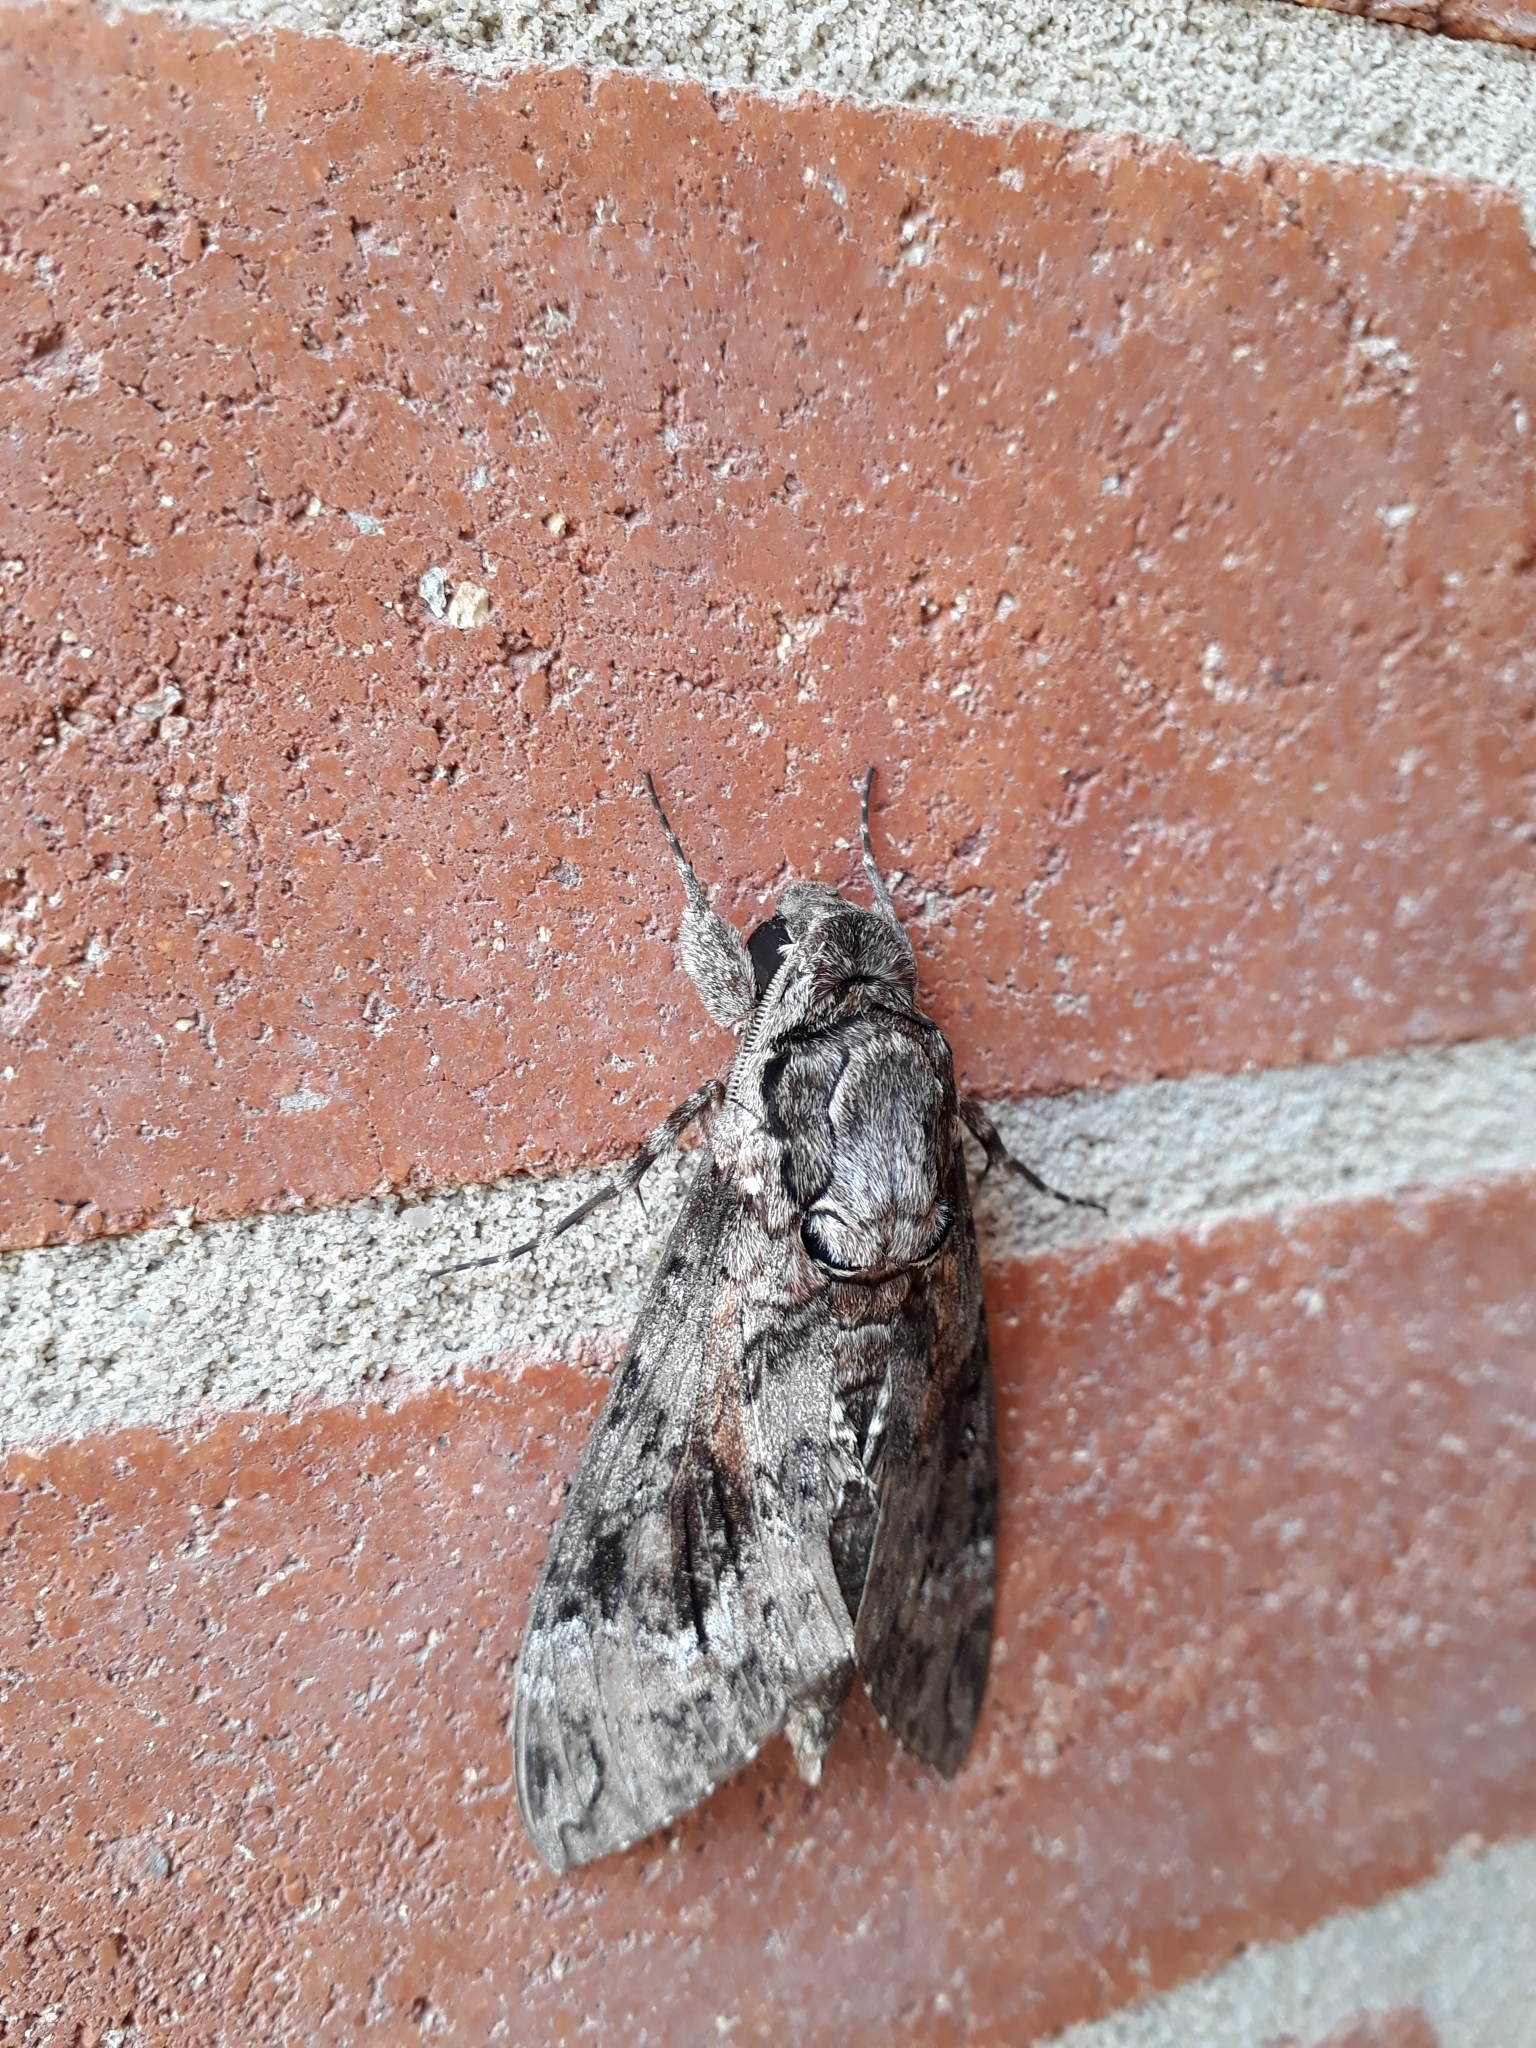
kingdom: Animalia
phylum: Arthropoda
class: Insecta
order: Lepidoptera
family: Sphingidae
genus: Agrius
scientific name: Agrius cingulata
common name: Pink-spotted hawkmoth
